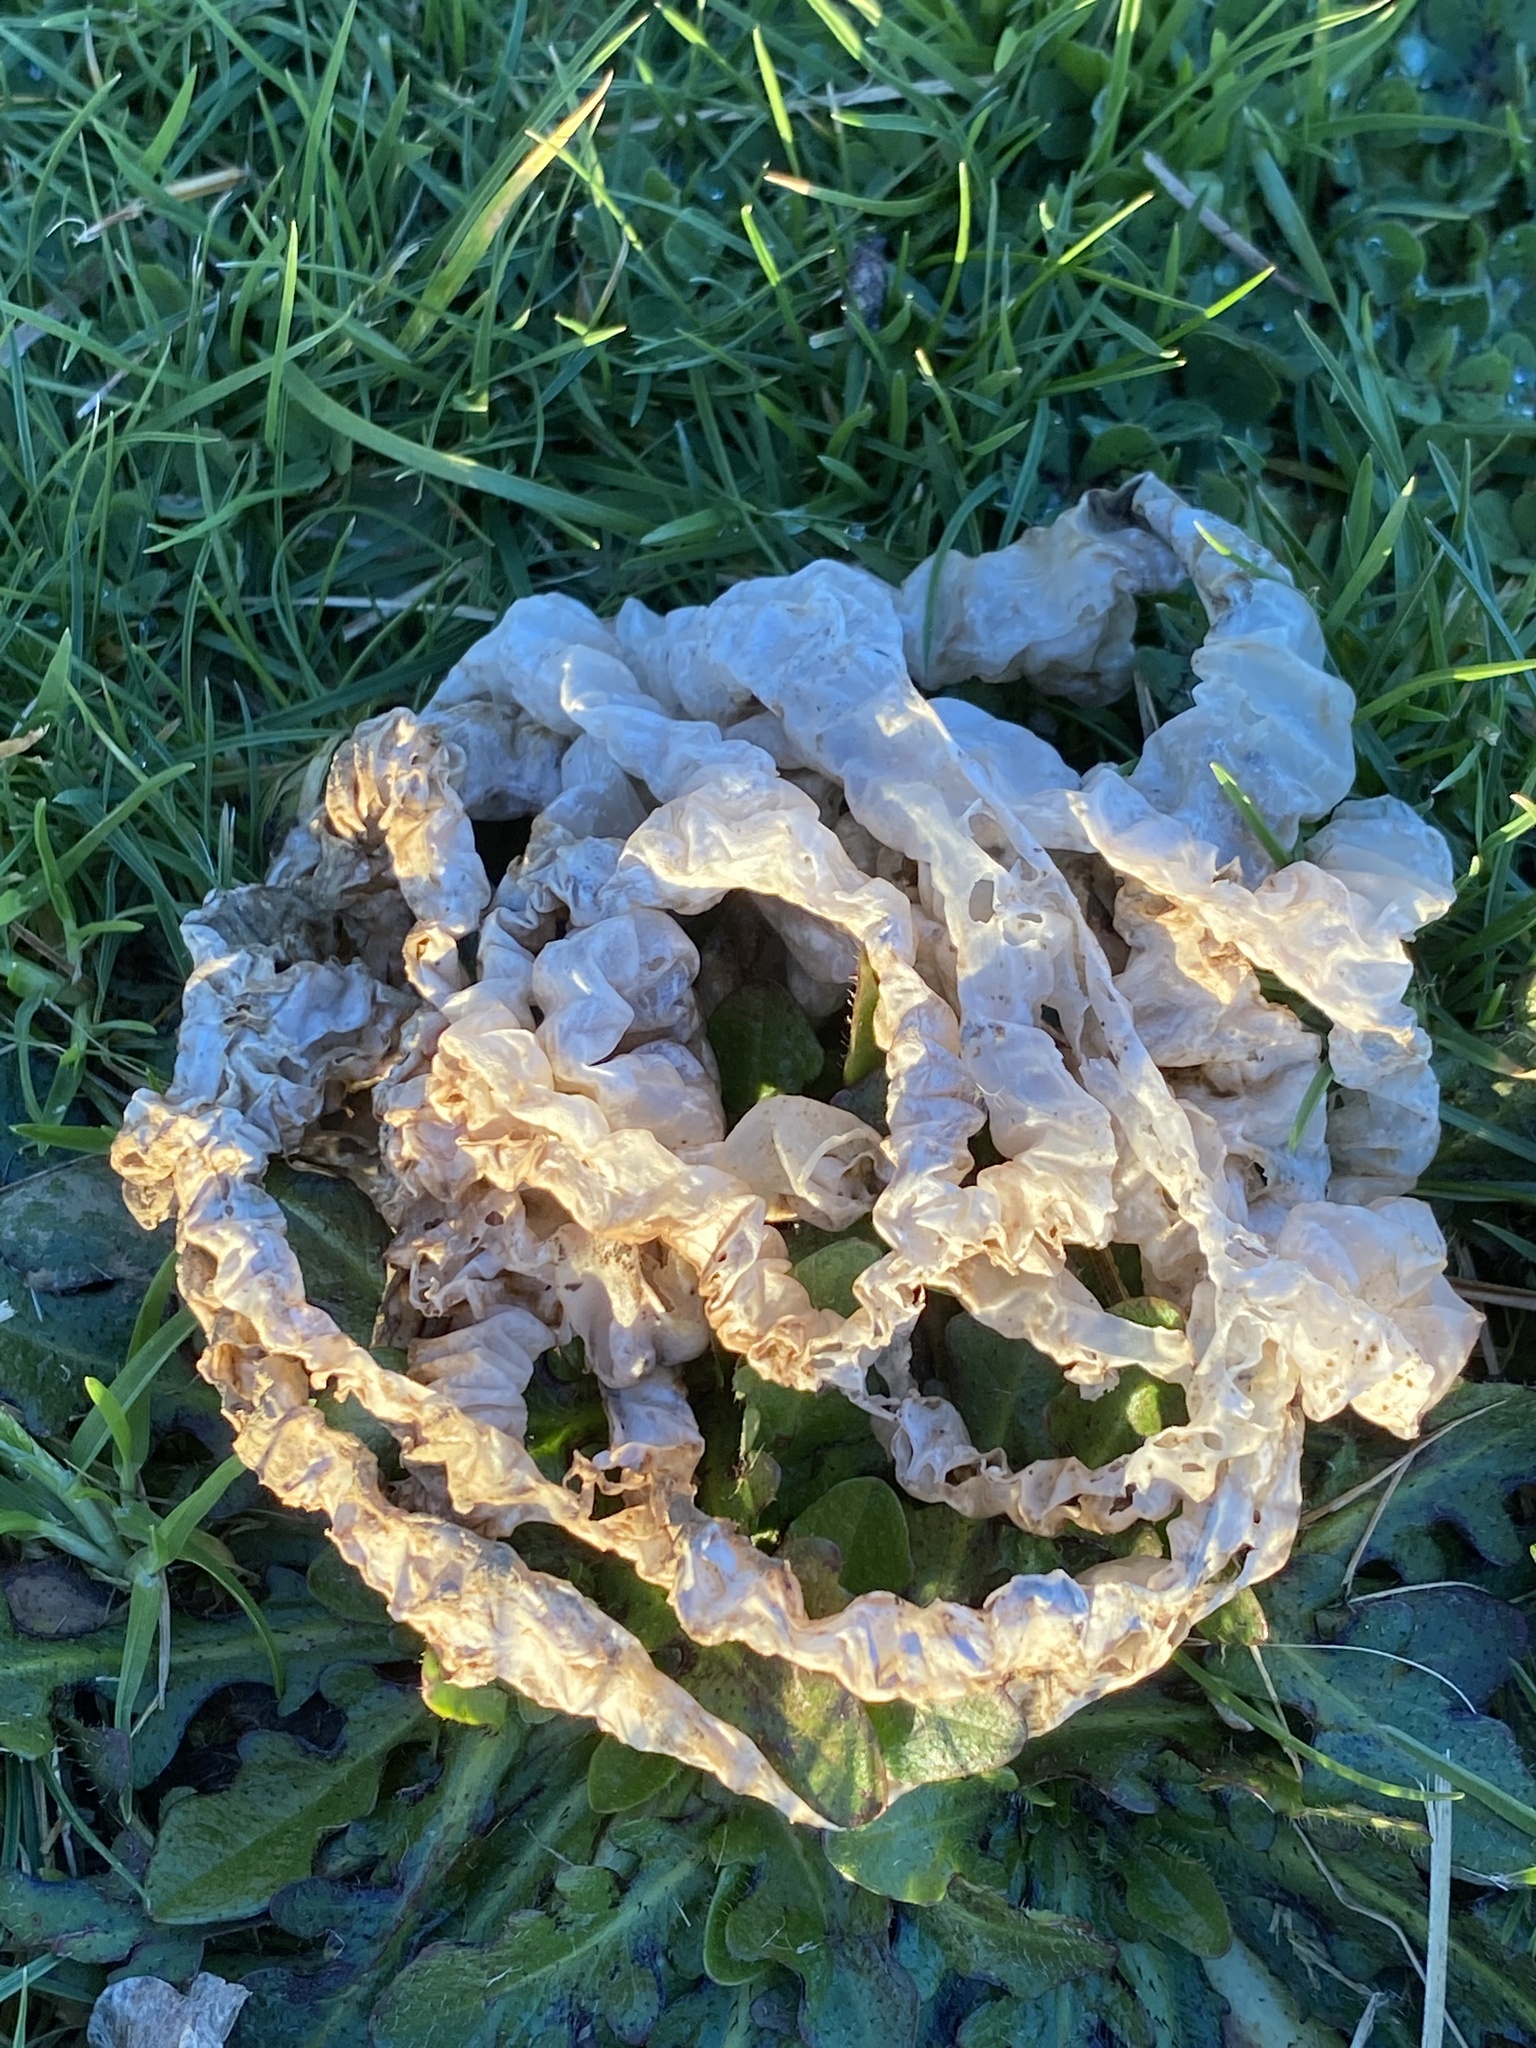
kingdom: Fungi
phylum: Basidiomycota
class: Agaricomycetes
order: Phallales
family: Phallaceae
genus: Ileodictyon
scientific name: Ileodictyon cibarium
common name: Basket fungus
